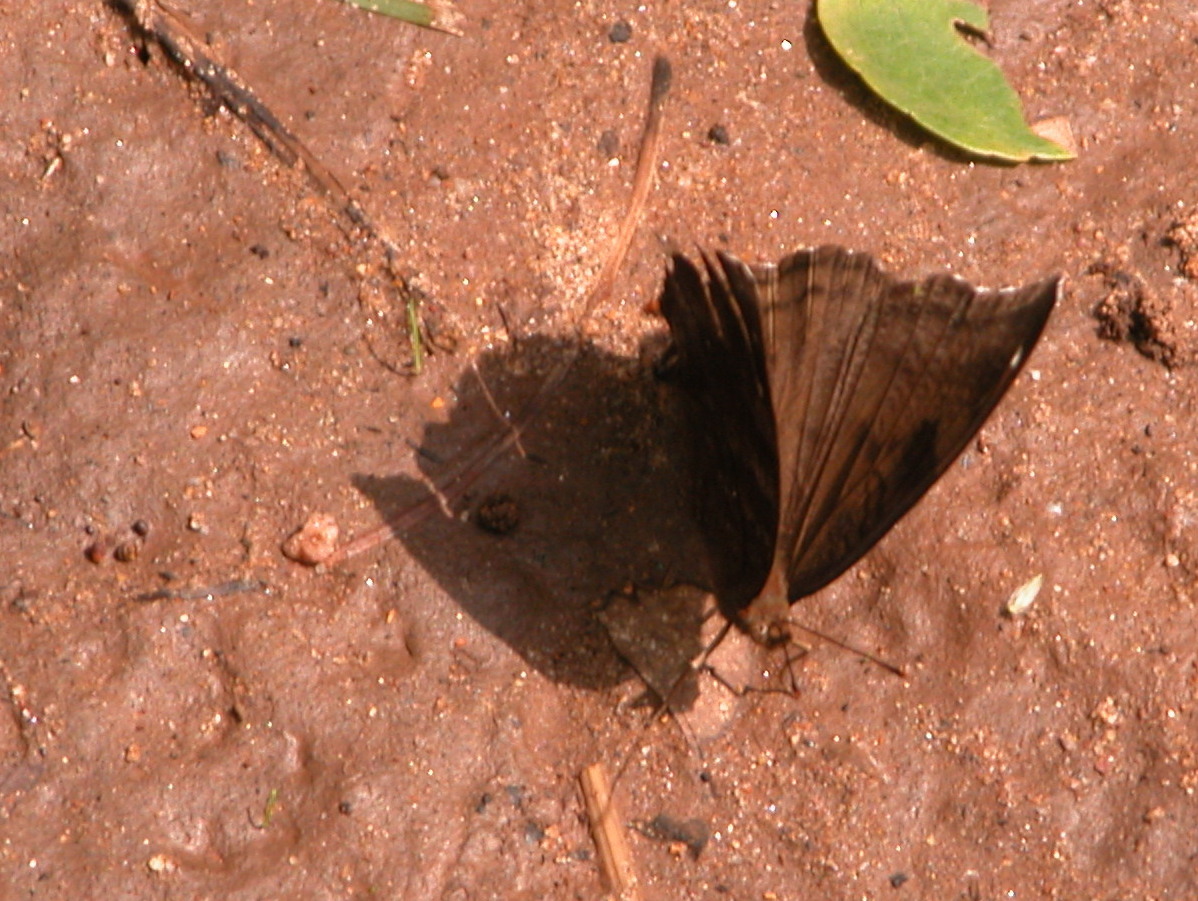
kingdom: Animalia
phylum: Arthropoda
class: Insecta
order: Lepidoptera
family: Nymphalidae
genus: Junonia
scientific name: Junonia iphita
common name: Chocolate pansy
